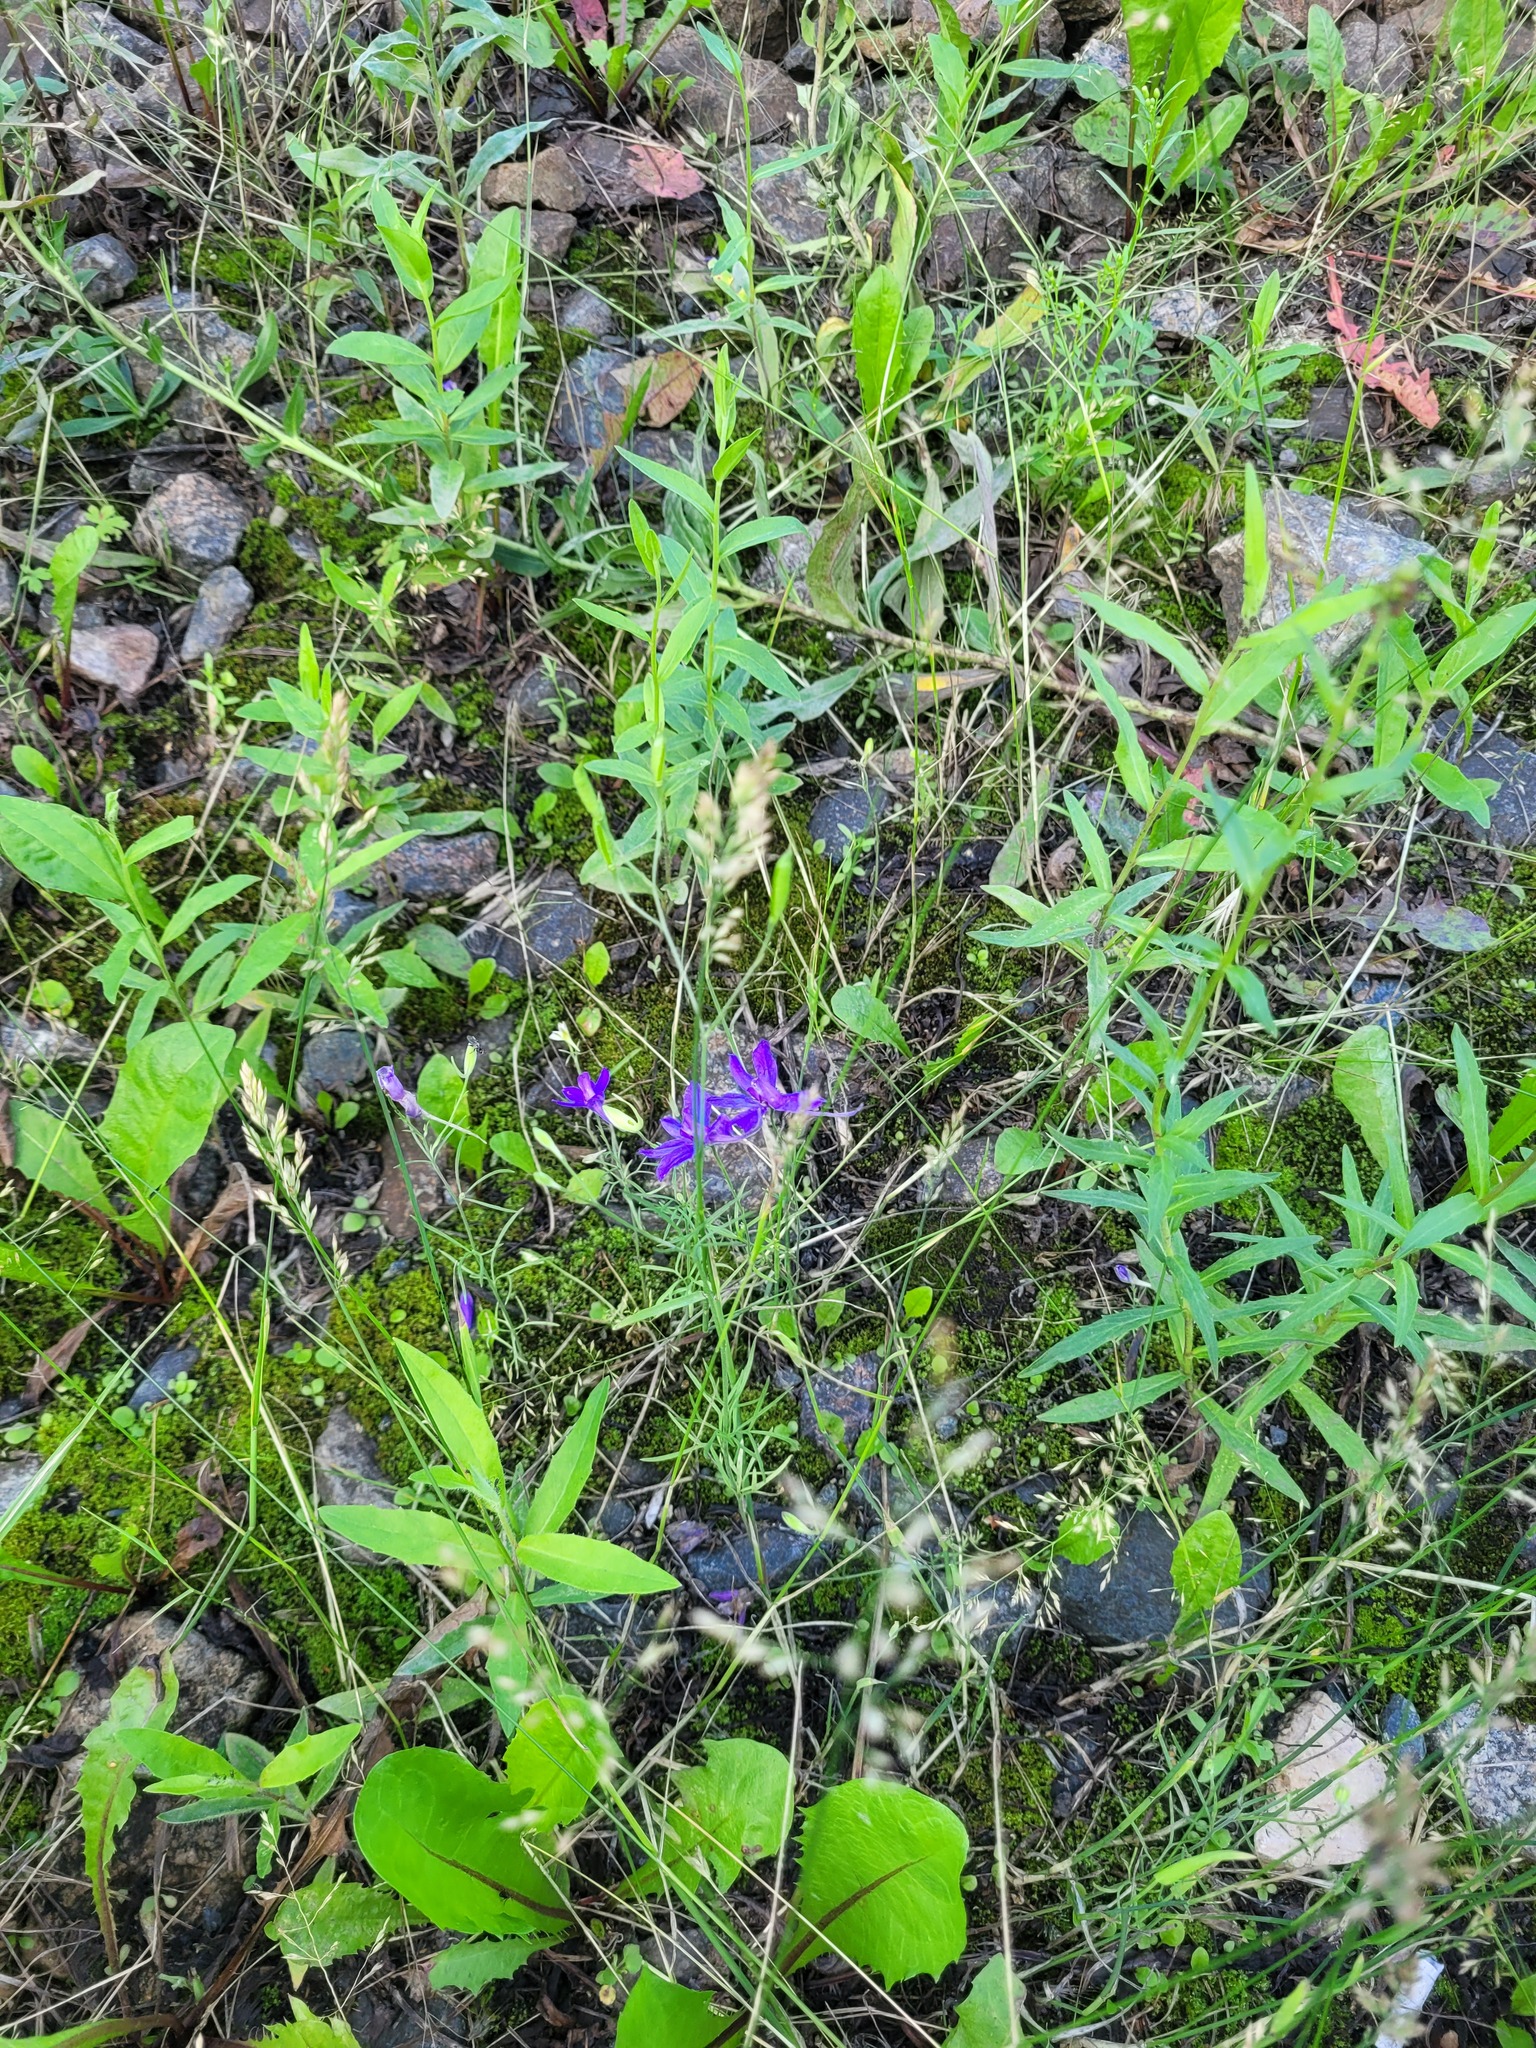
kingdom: Plantae
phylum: Tracheophyta
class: Magnoliopsida
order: Ranunculales
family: Ranunculaceae
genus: Delphinium
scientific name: Delphinium consolida
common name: Branching larkspur
